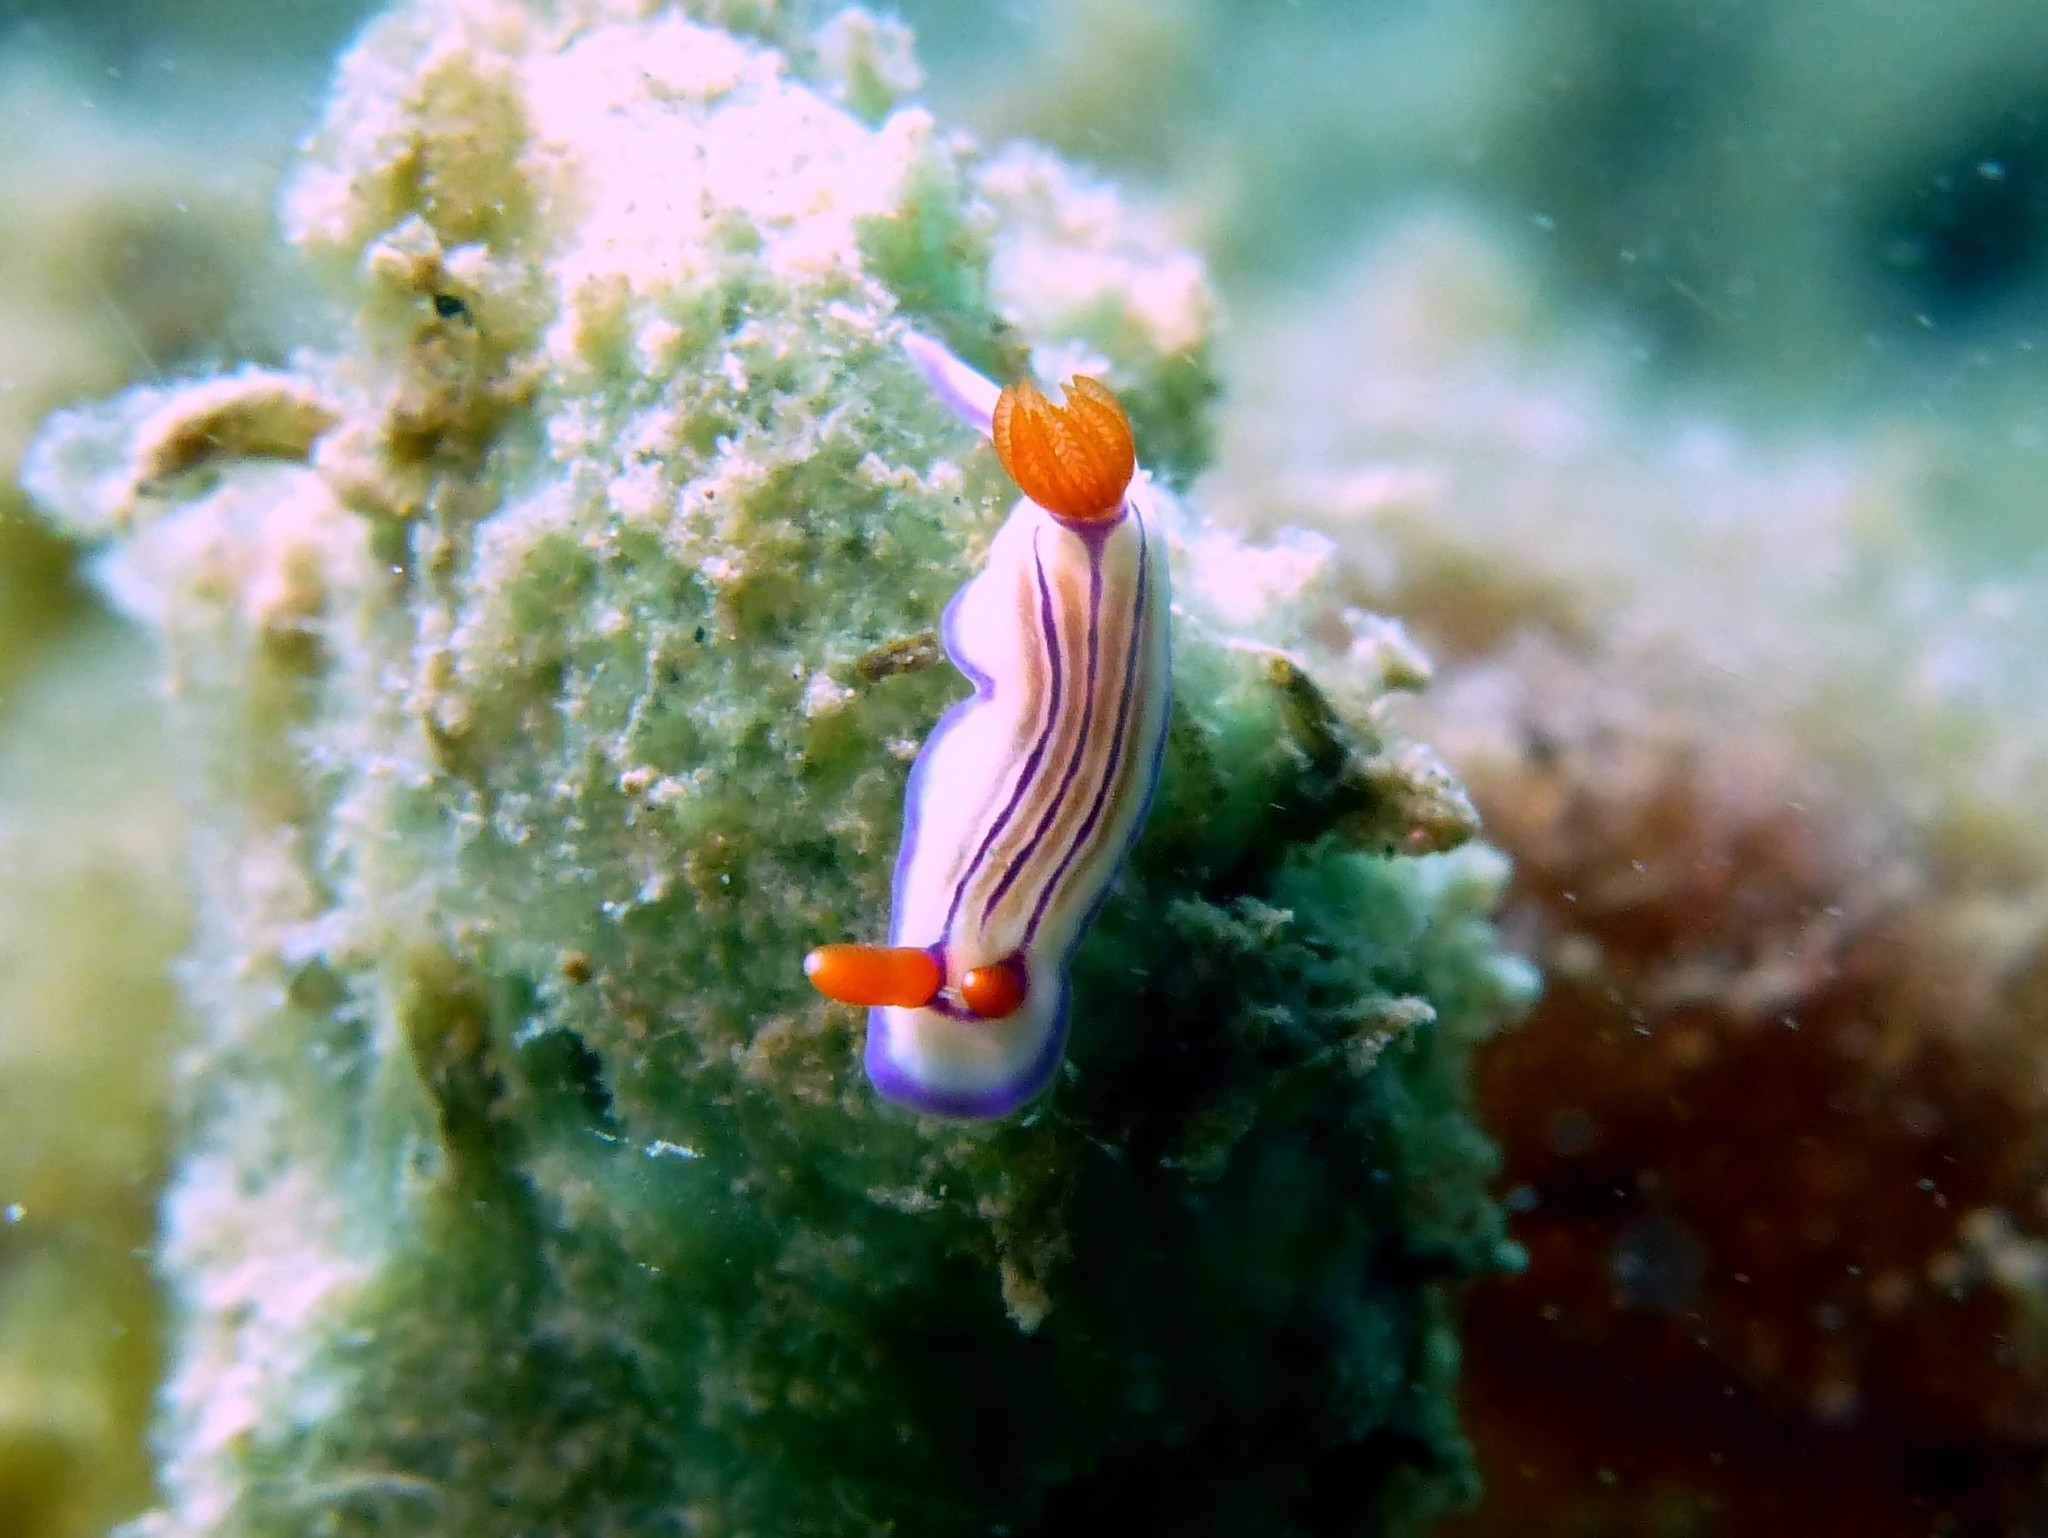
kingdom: Animalia
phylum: Mollusca
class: Gastropoda
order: Nudibranchia
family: Chromodorididae
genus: Hypselodoris
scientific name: Hypselodoris emma
